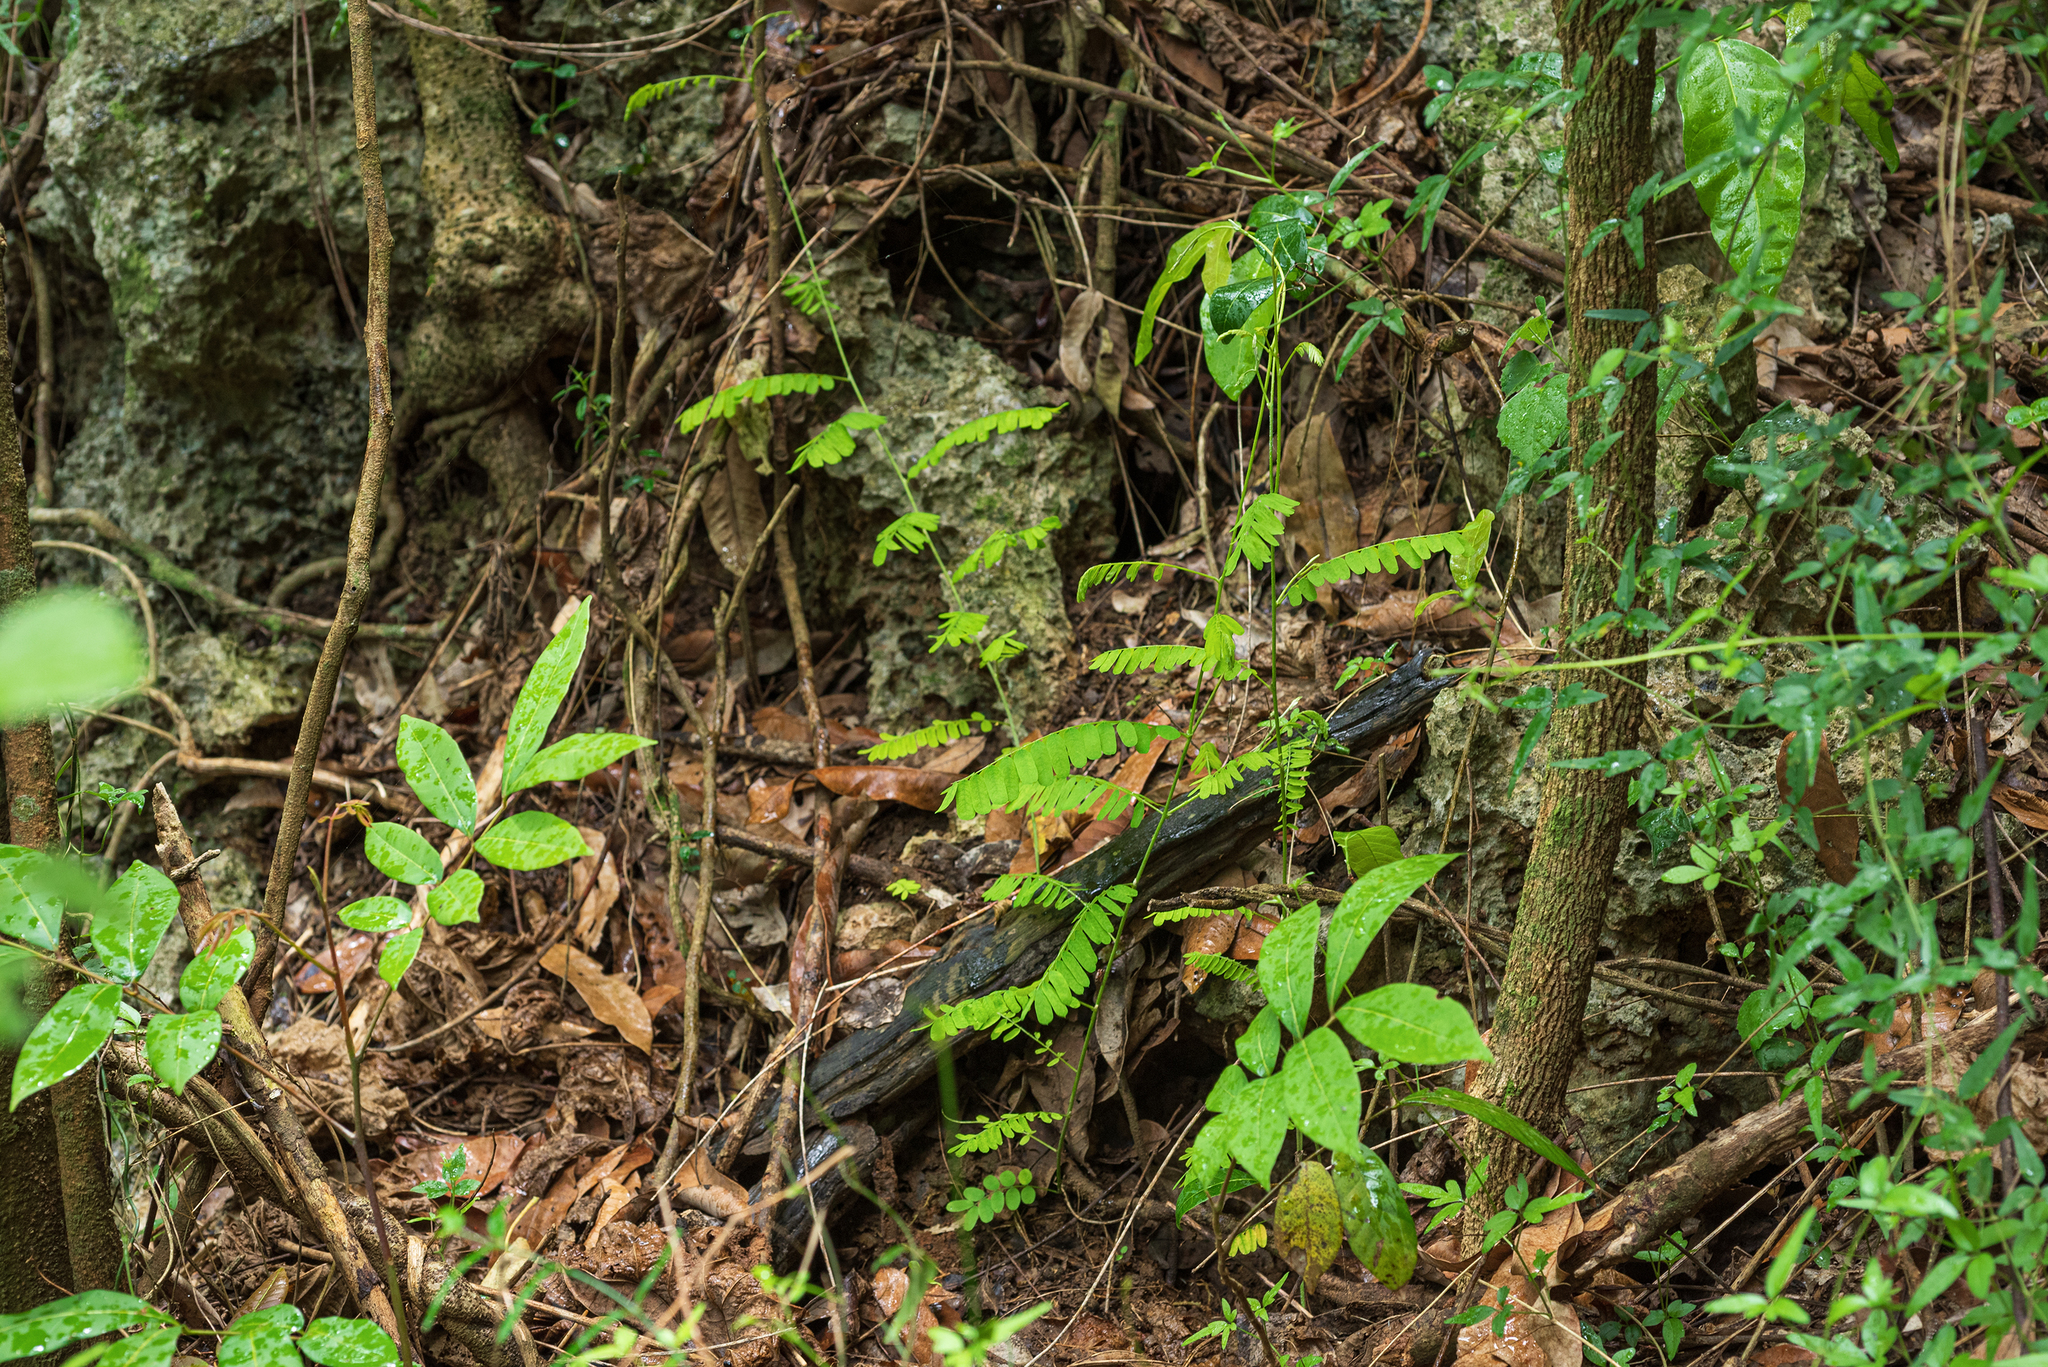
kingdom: Plantae
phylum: Tracheophyta
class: Magnoliopsida
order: Fabales
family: Fabaceae
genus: Abrus
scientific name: Abrus precatorius
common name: Rosarypea
